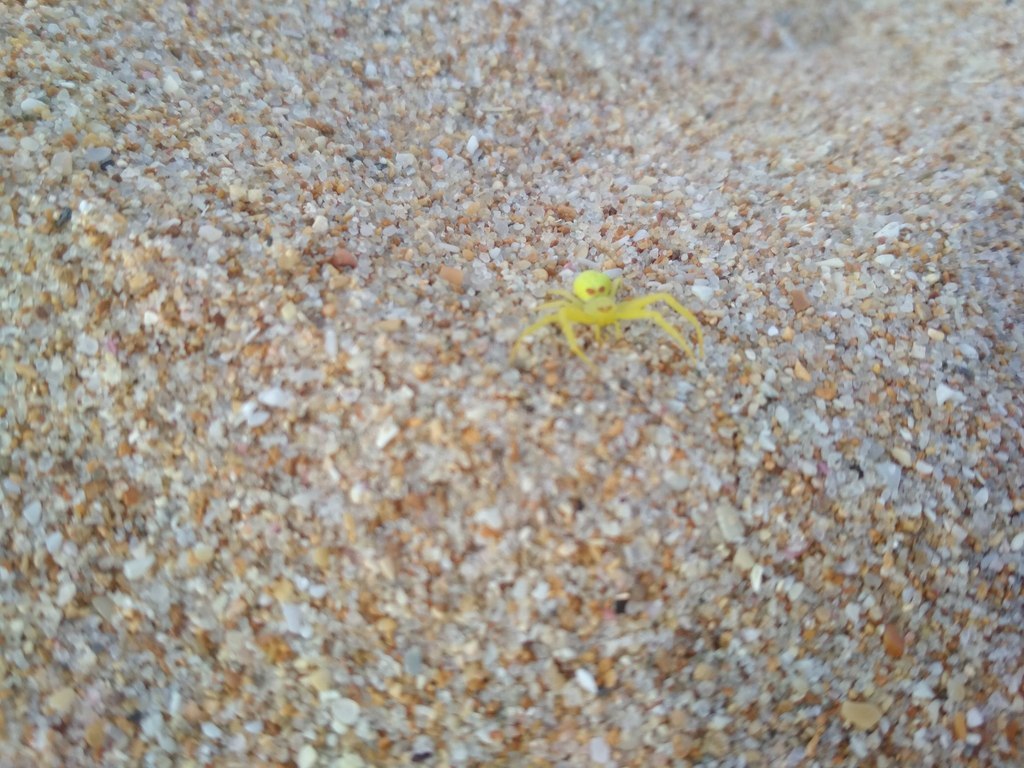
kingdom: Animalia
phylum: Arthropoda
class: Arachnida
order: Araneae
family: Thomisidae
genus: Misumena
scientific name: Misumena vatia
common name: Goldenrod crab spider
